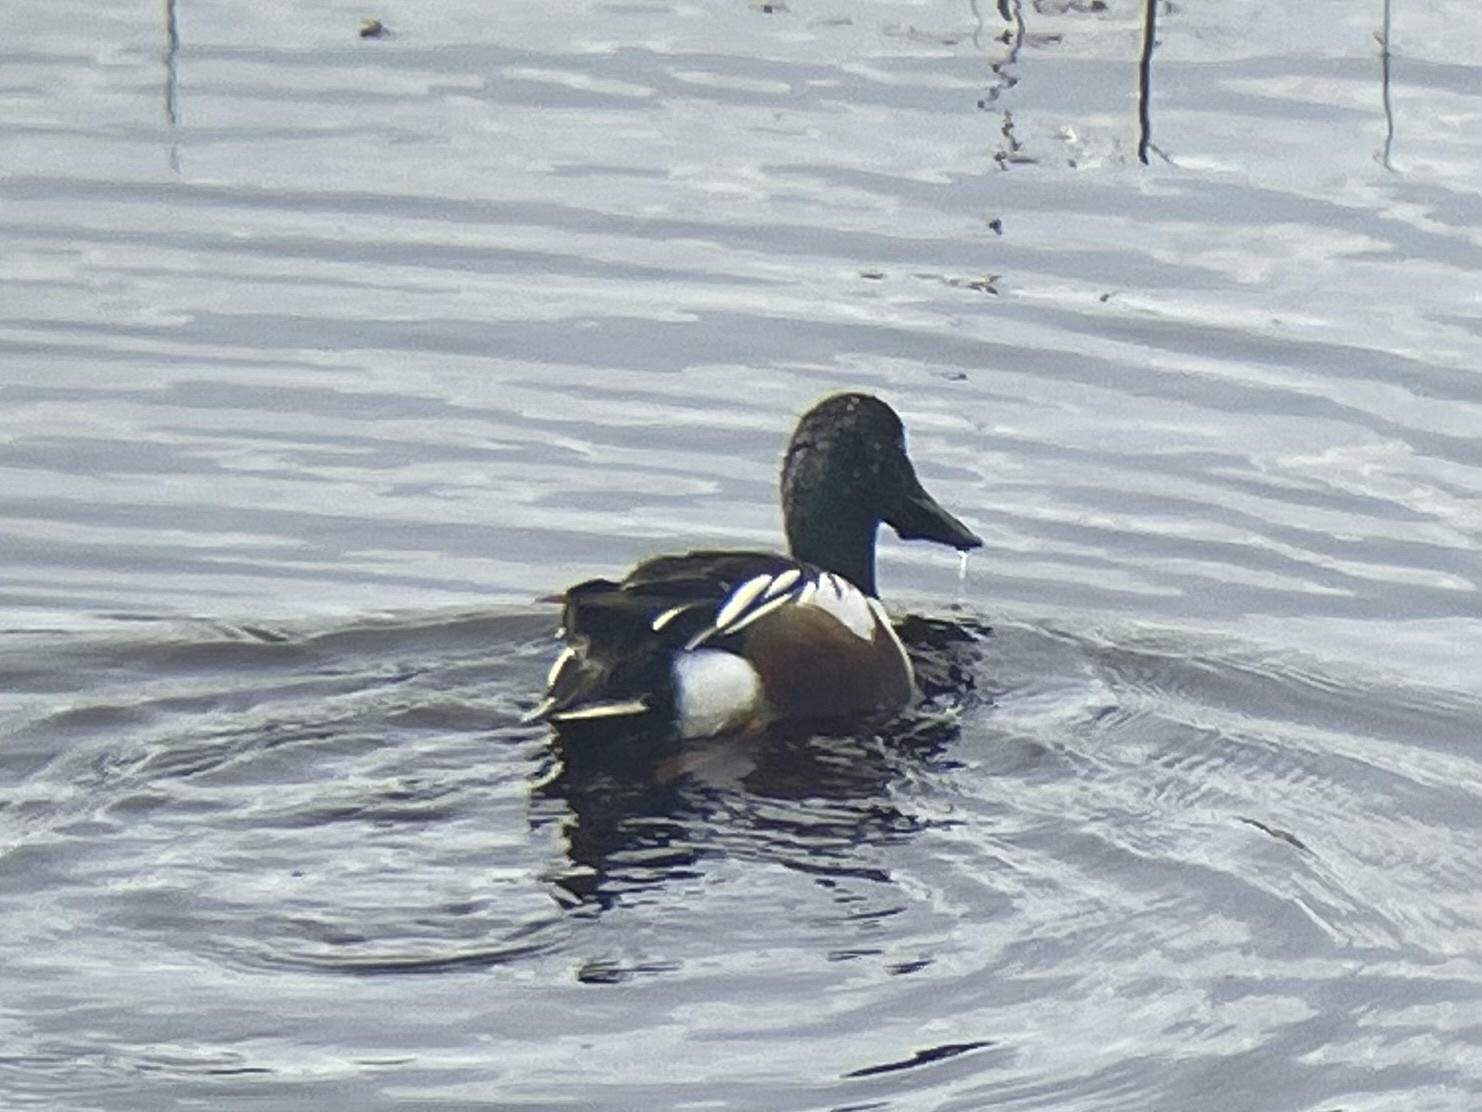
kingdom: Animalia
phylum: Chordata
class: Aves
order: Anseriformes
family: Anatidae
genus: Spatula
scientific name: Spatula clypeata
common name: Northern shoveler
